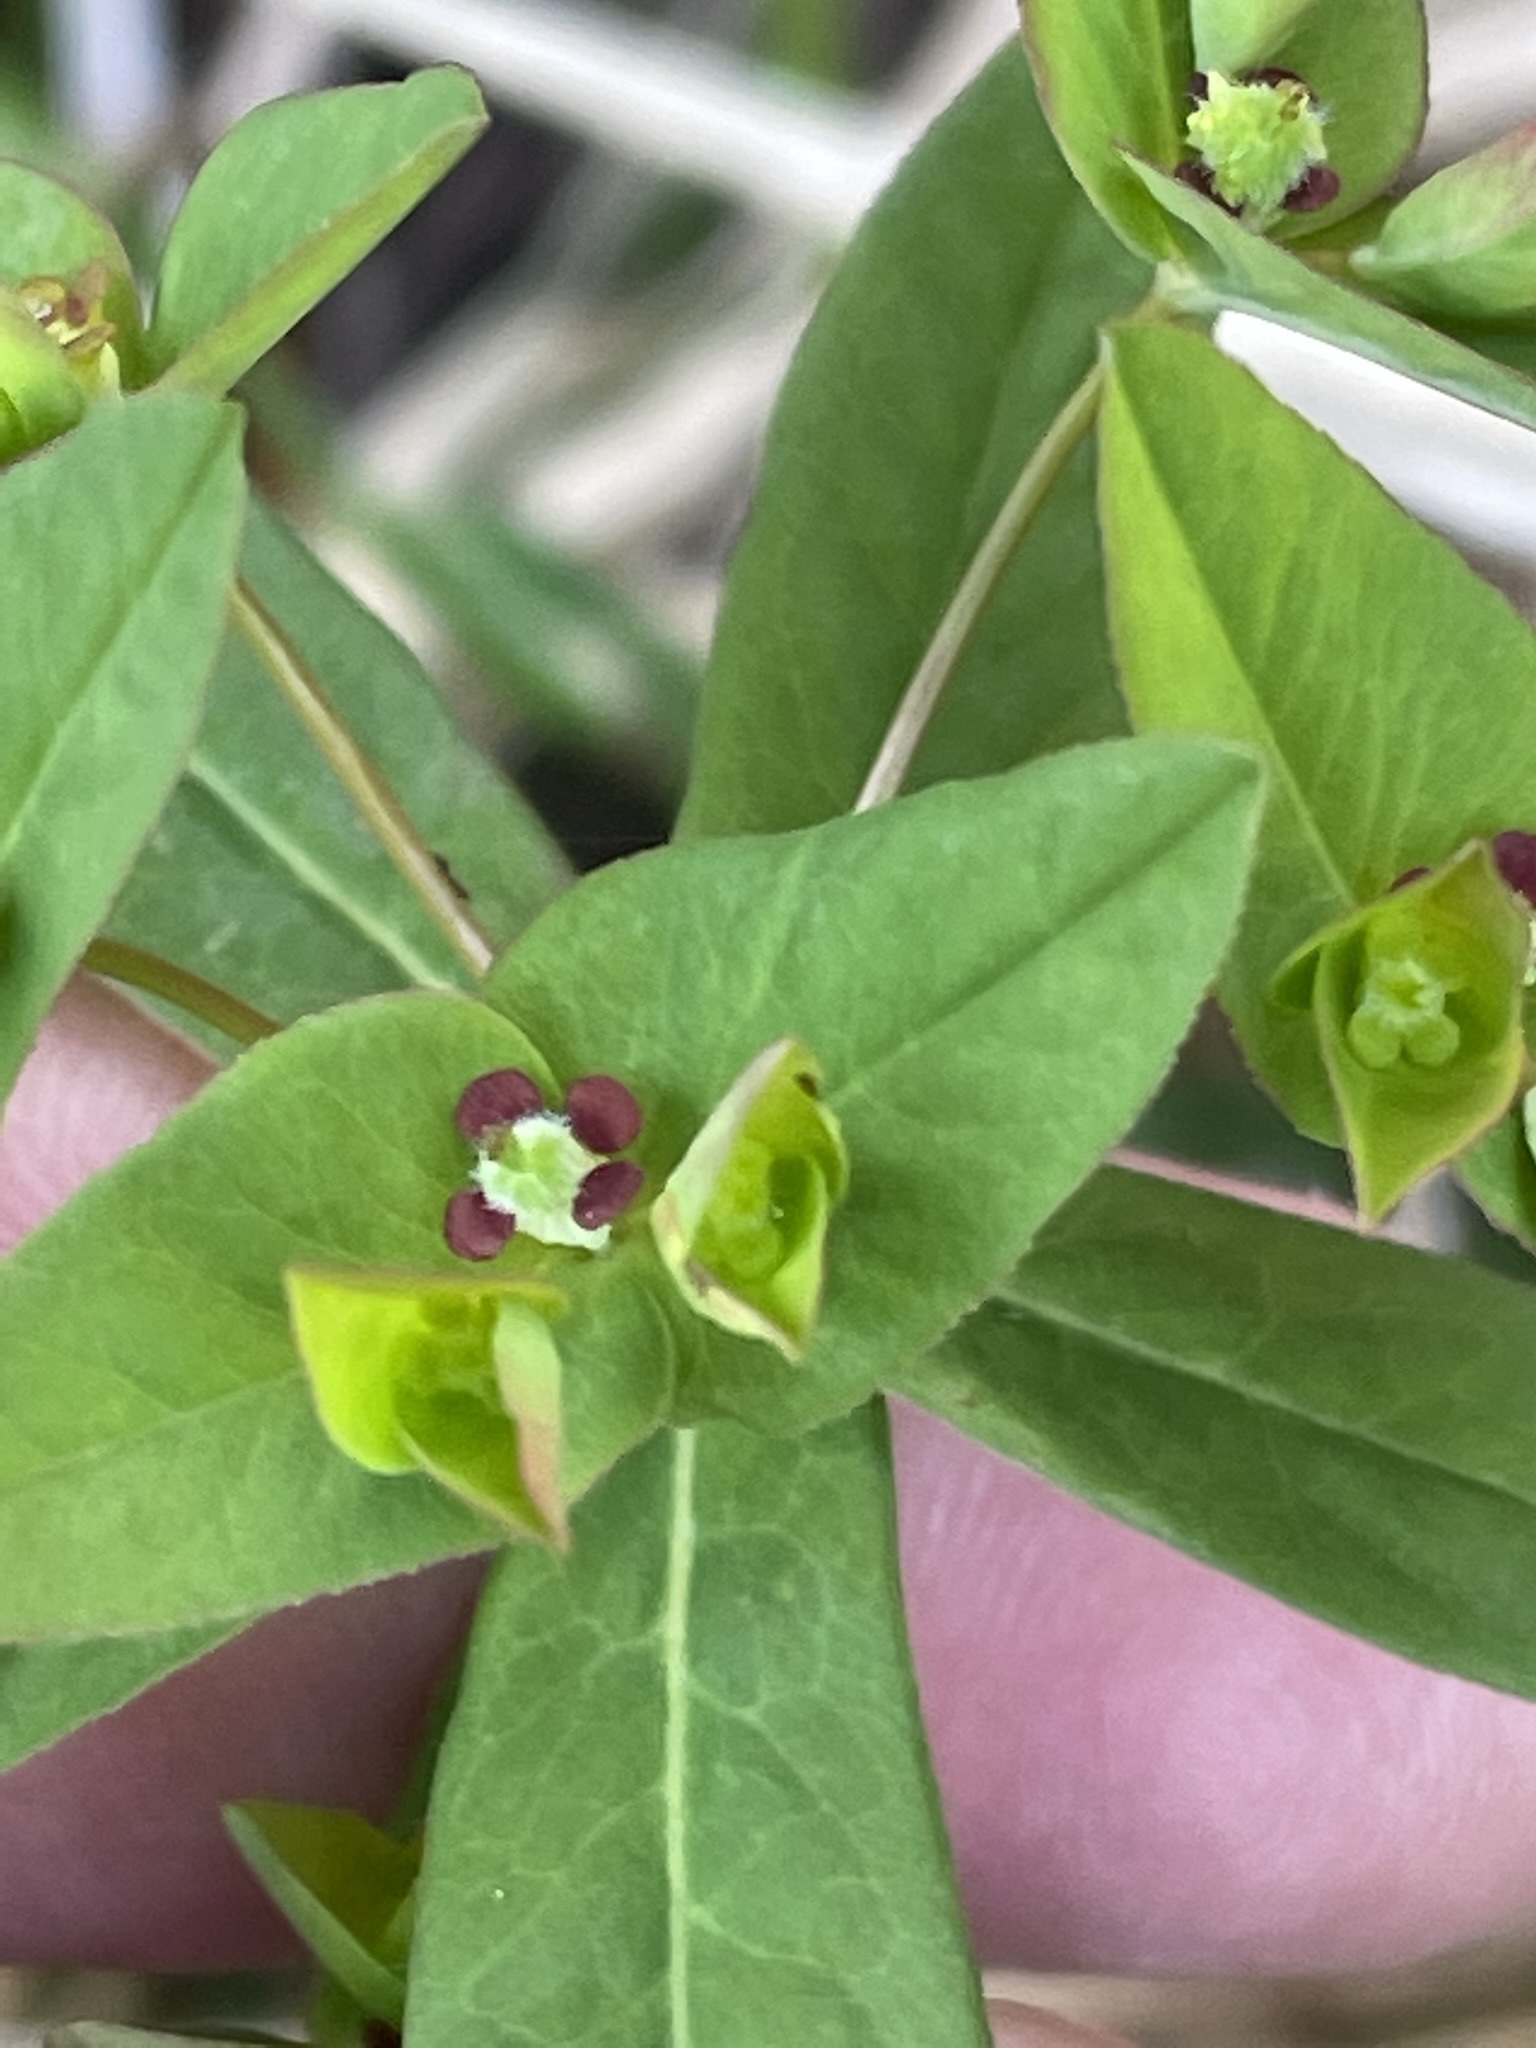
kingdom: Plantae
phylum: Tracheophyta
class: Magnoliopsida
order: Malpighiales
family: Euphorbiaceae
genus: Euphorbia
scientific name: Euphorbia dulcis
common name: Sweet spurge
